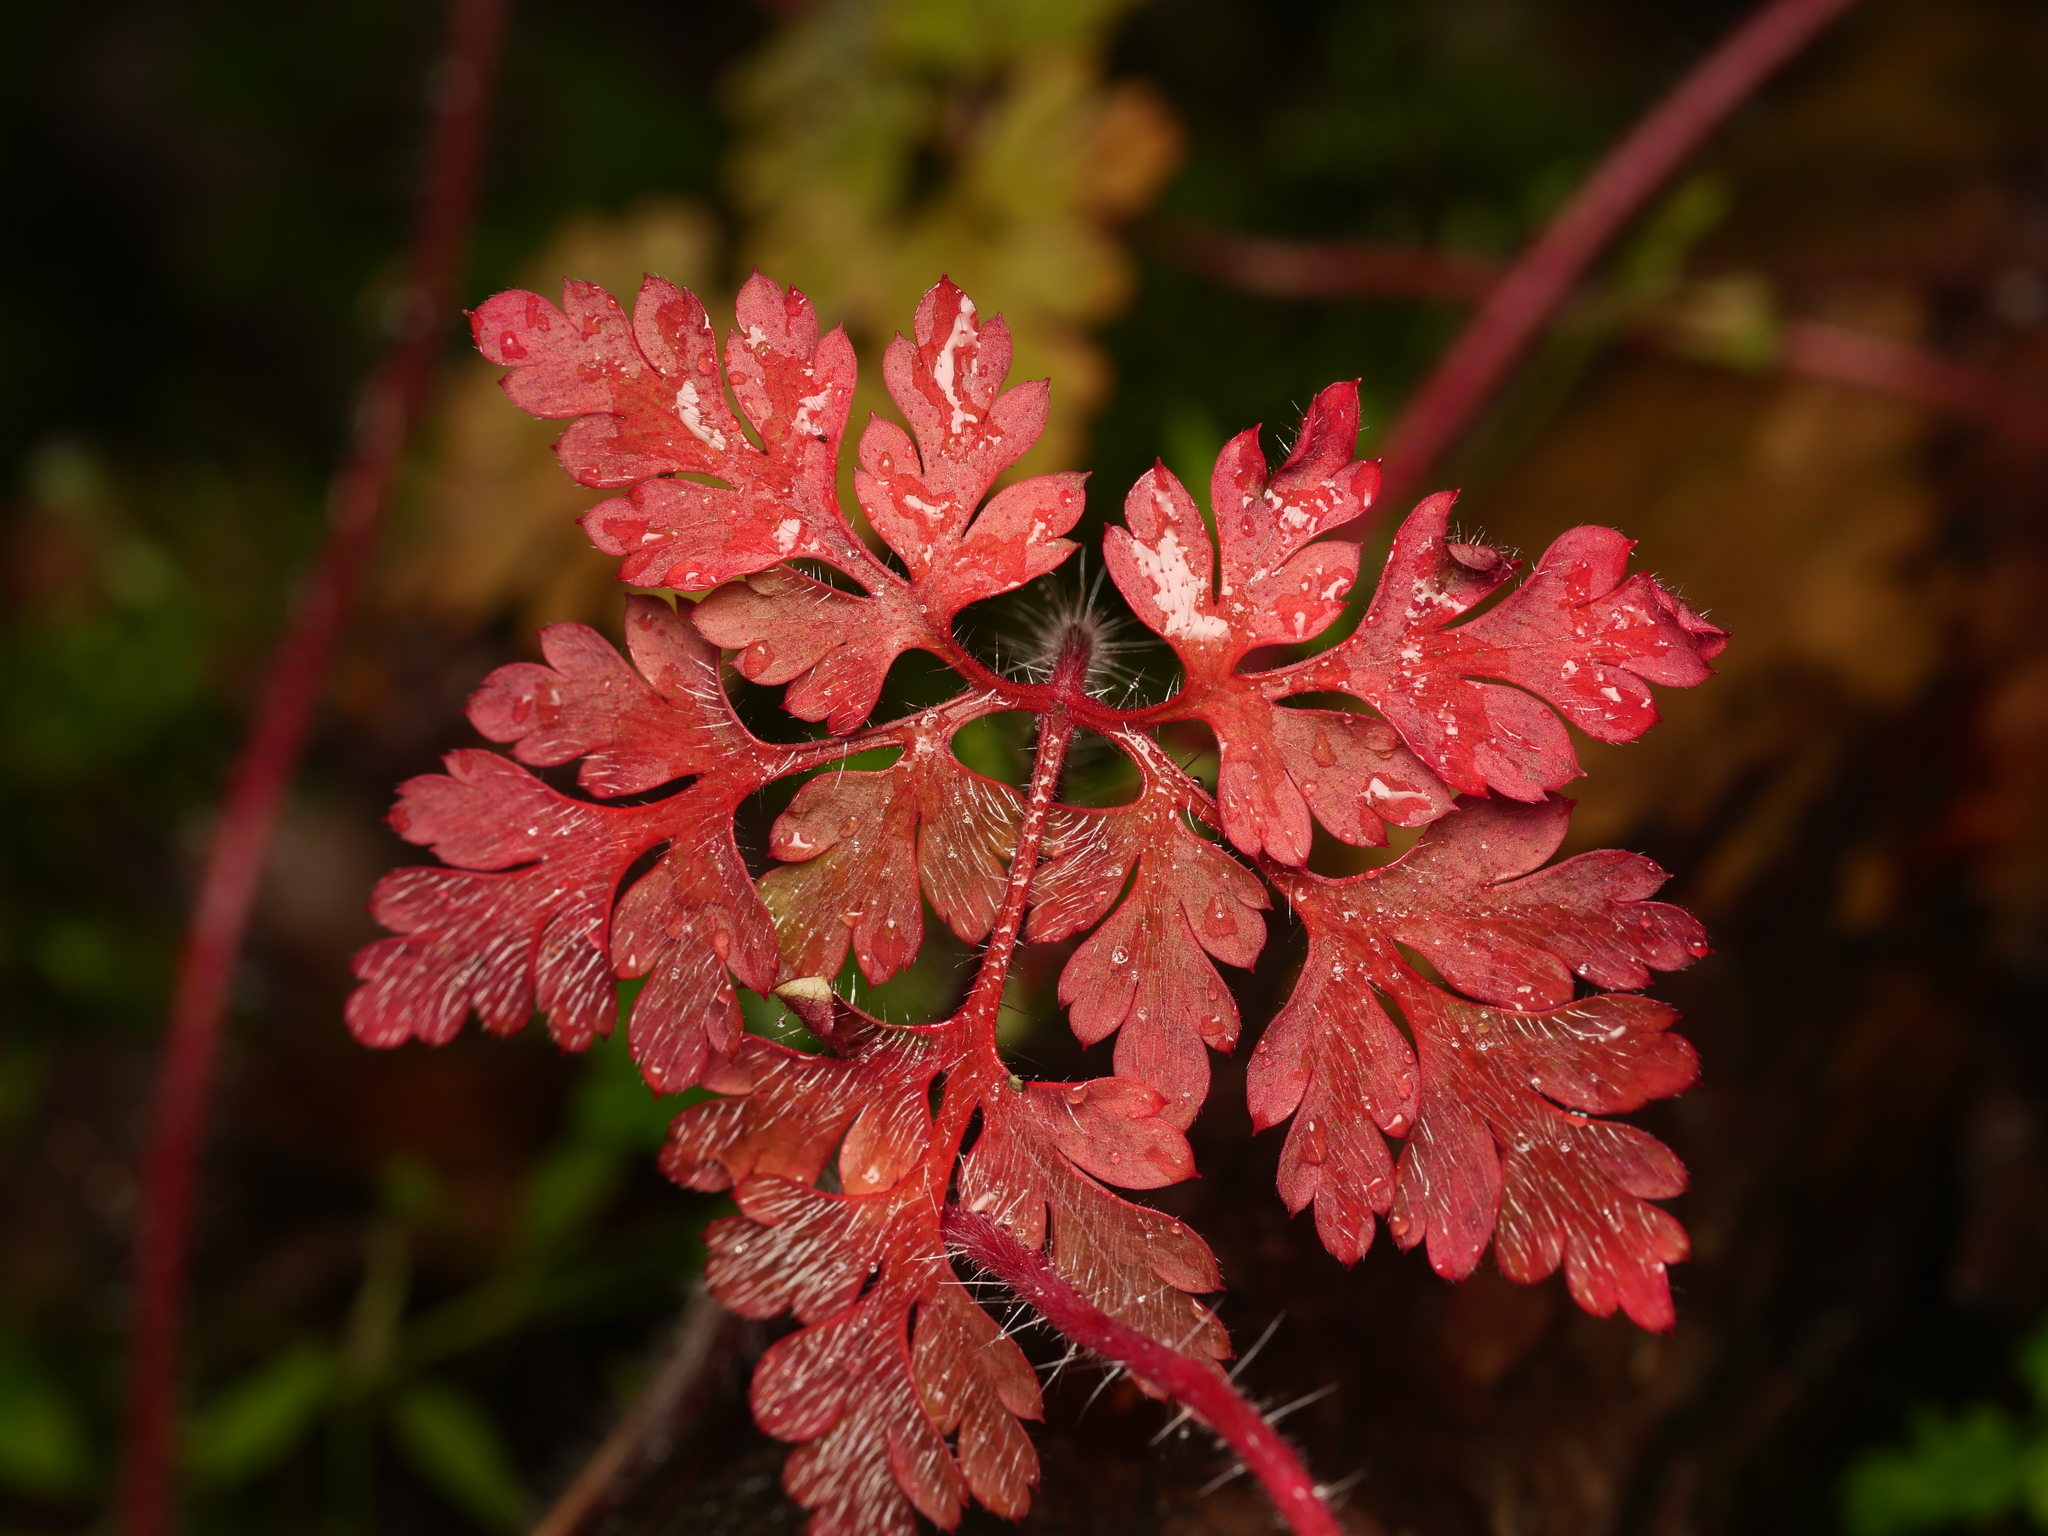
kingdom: Plantae
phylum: Tracheophyta
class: Magnoliopsida
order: Geraniales
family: Geraniaceae
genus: Geranium
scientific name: Geranium robertianum
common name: Herb-robert
